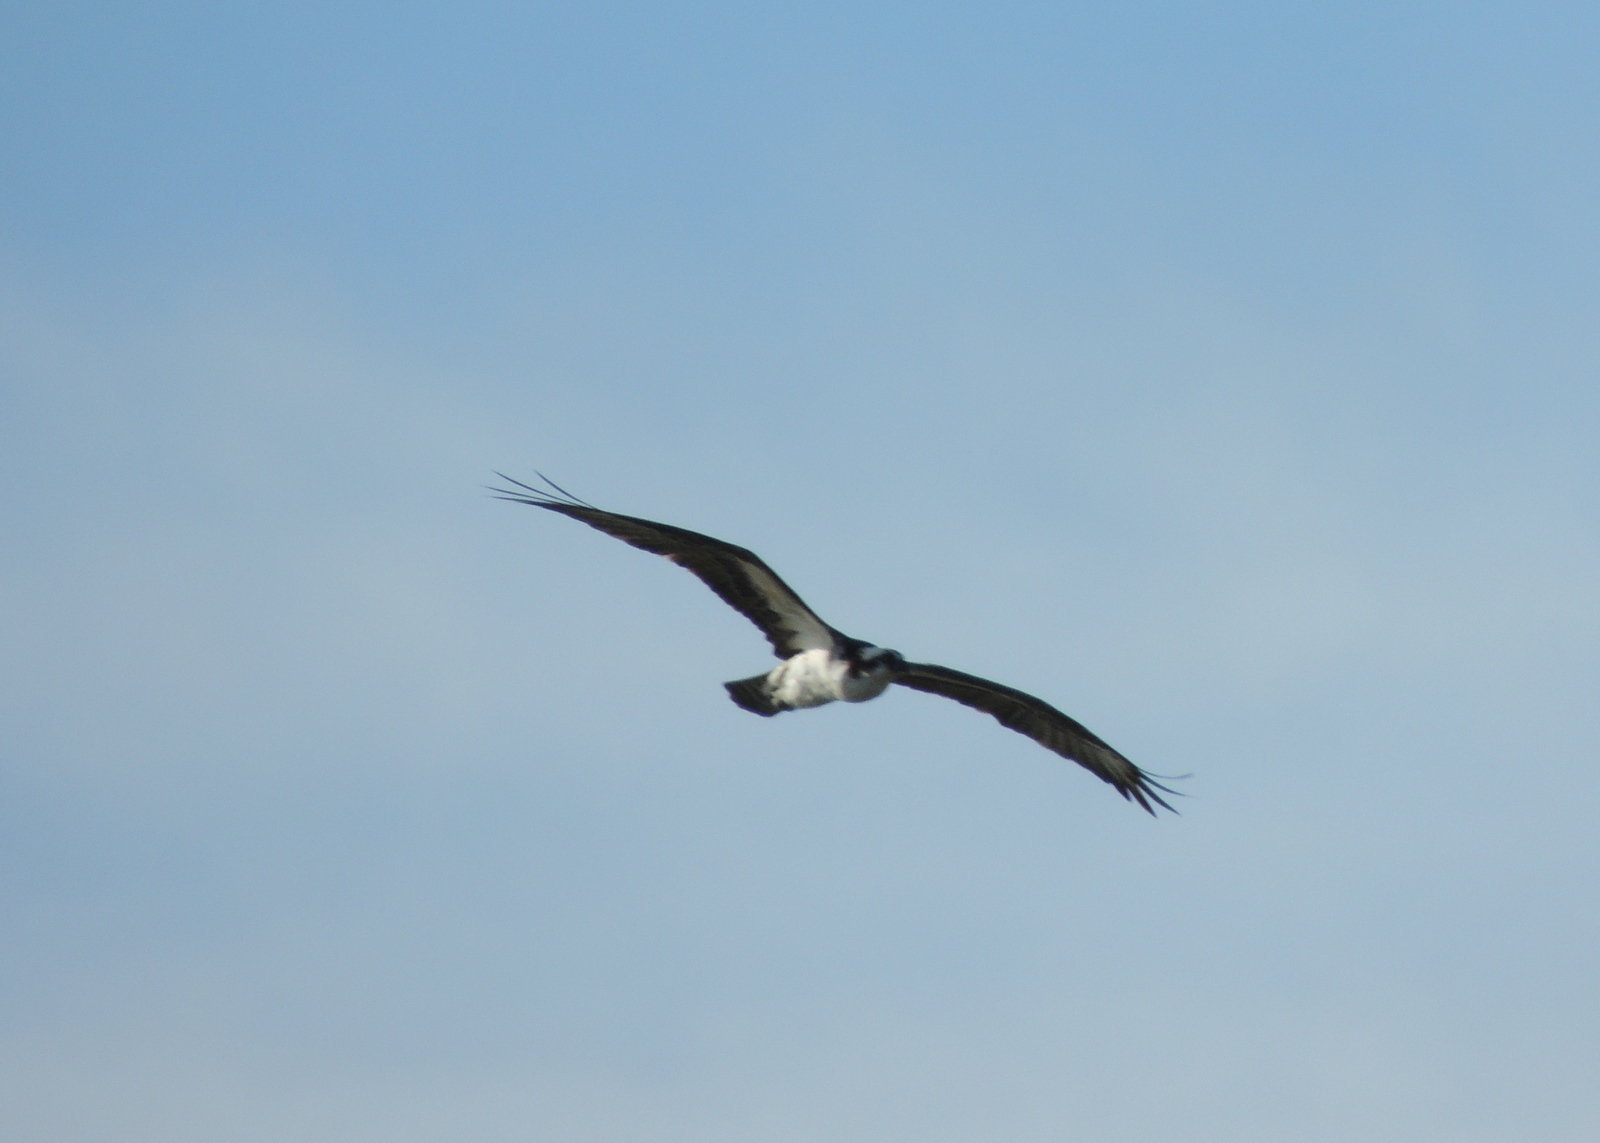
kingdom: Animalia
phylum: Chordata
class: Aves
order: Accipitriformes
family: Pandionidae
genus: Pandion
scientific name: Pandion haliaetus
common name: Osprey
